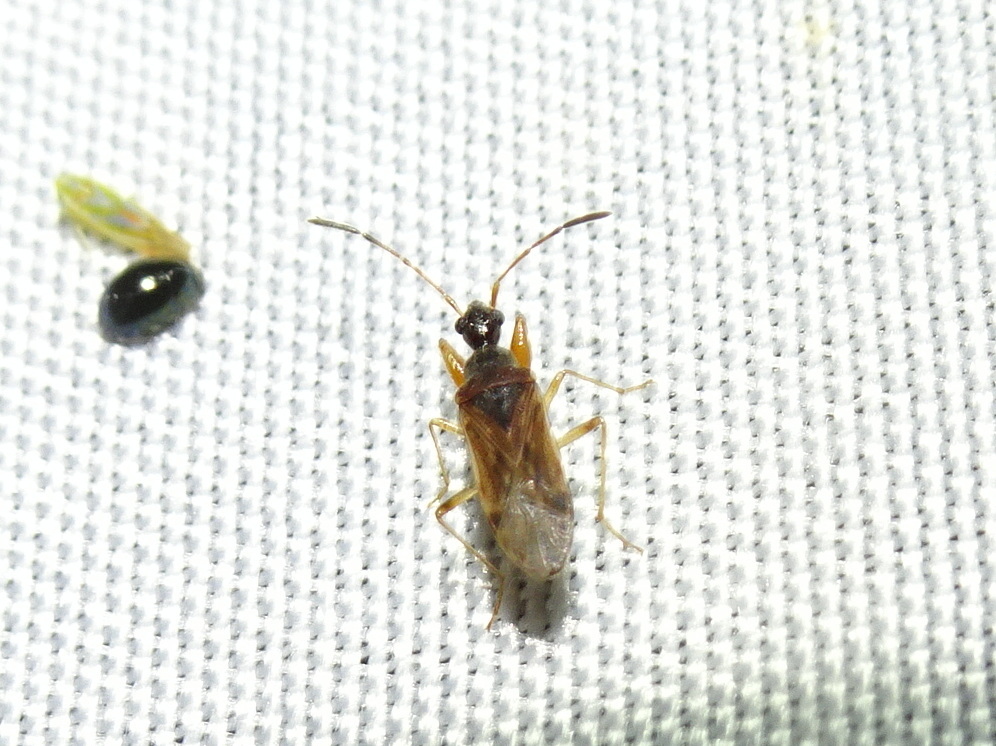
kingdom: Animalia
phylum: Arthropoda
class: Insecta
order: Hemiptera
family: Rhyparochromidae
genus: Heraeus
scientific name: Heraeus plebejus
